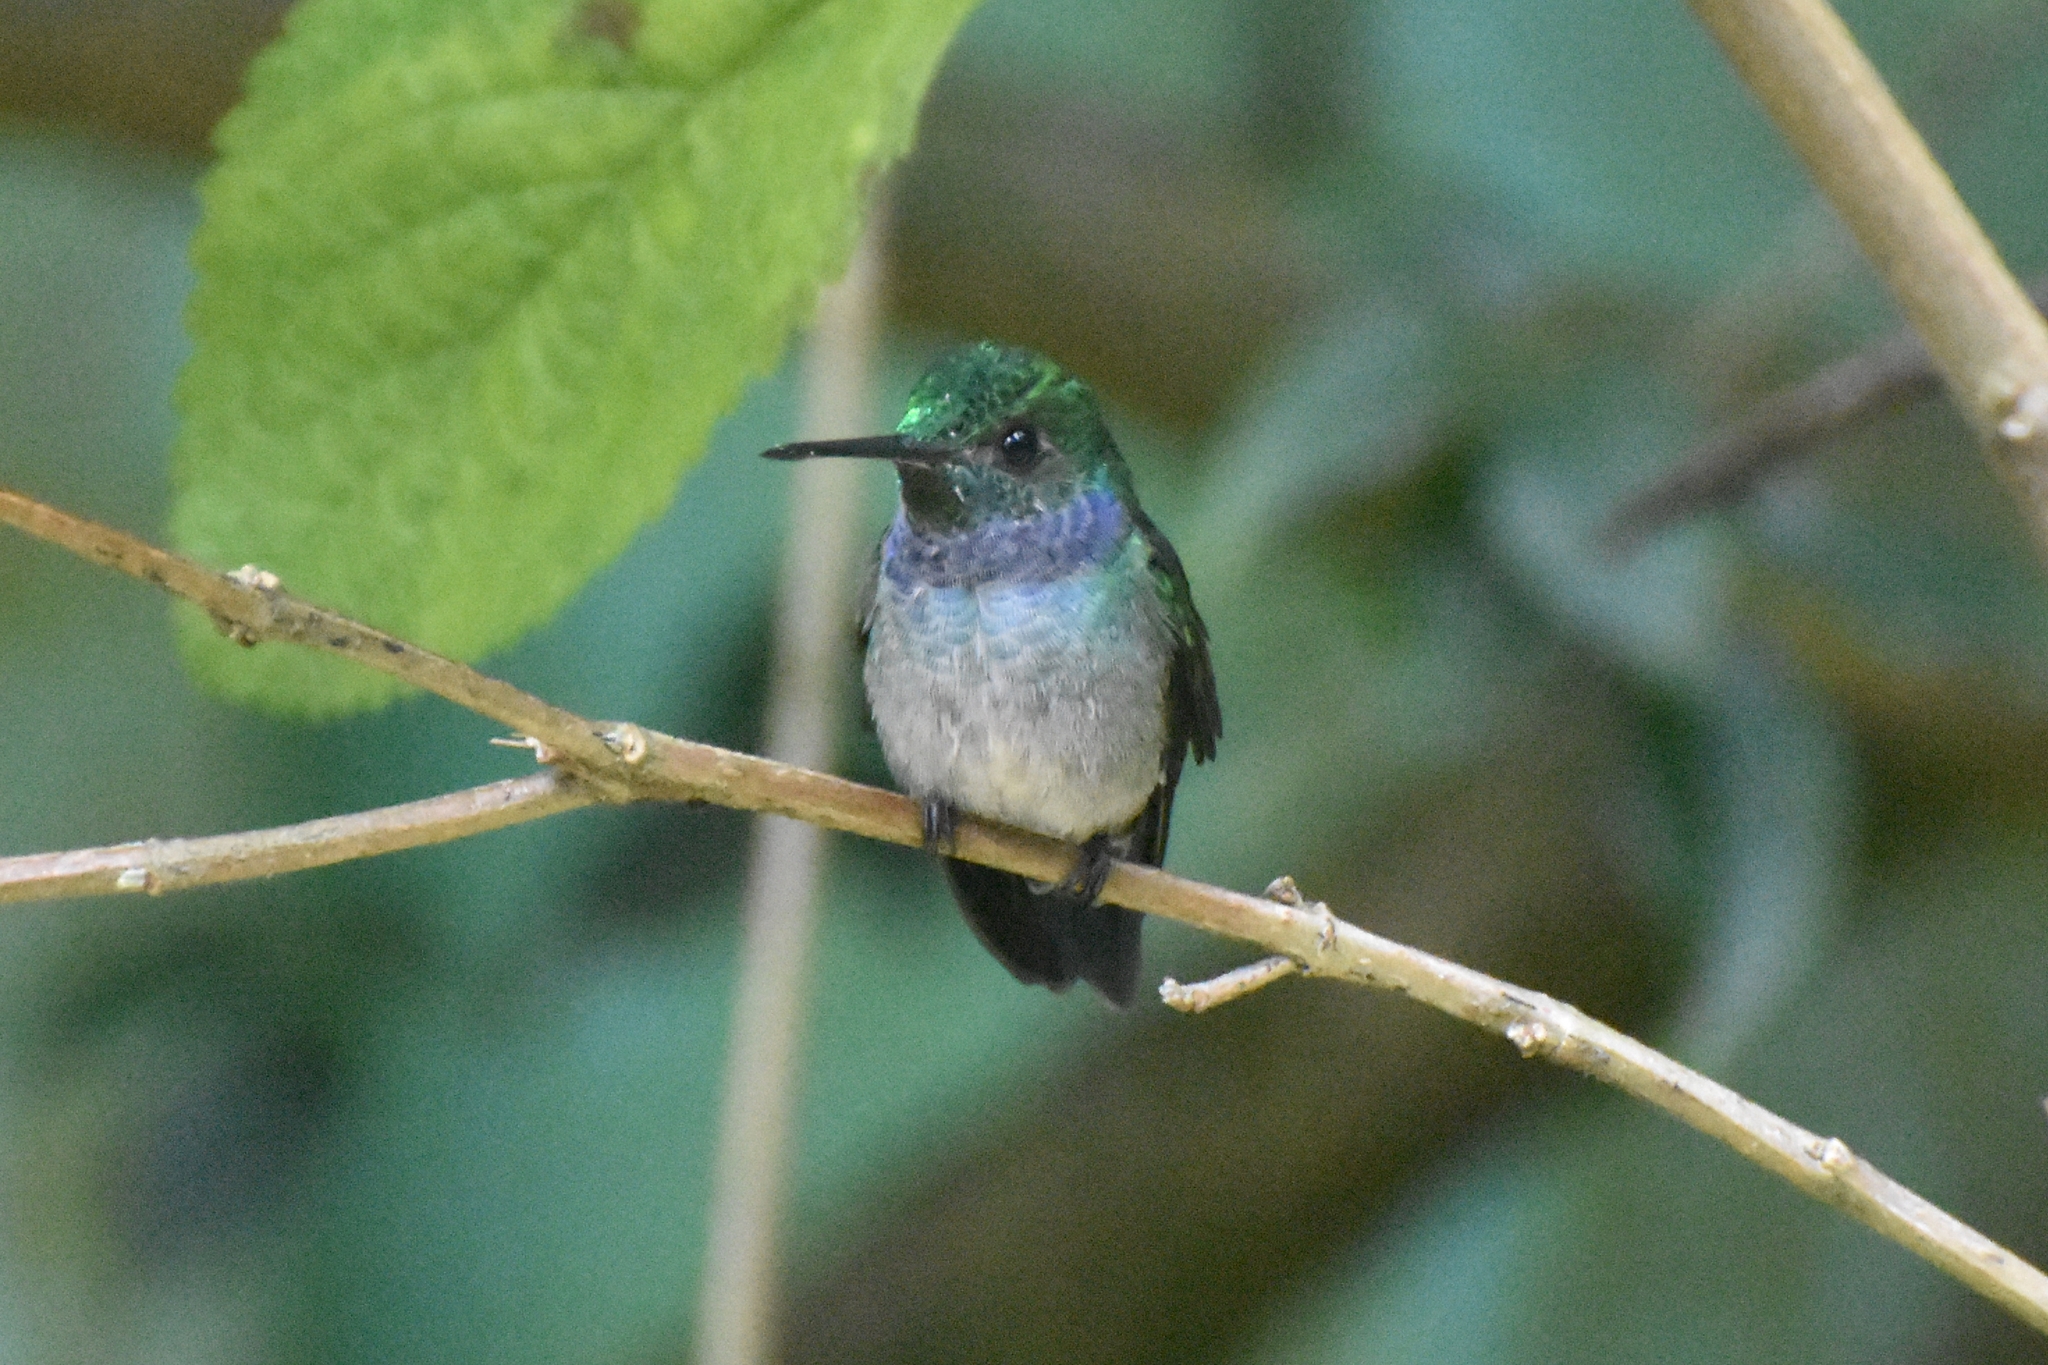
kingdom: Animalia
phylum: Chordata
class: Aves
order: Apodiformes
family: Trochilidae
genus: Polyerata
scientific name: Polyerata amabilis
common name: Blue-chested hummingbird
